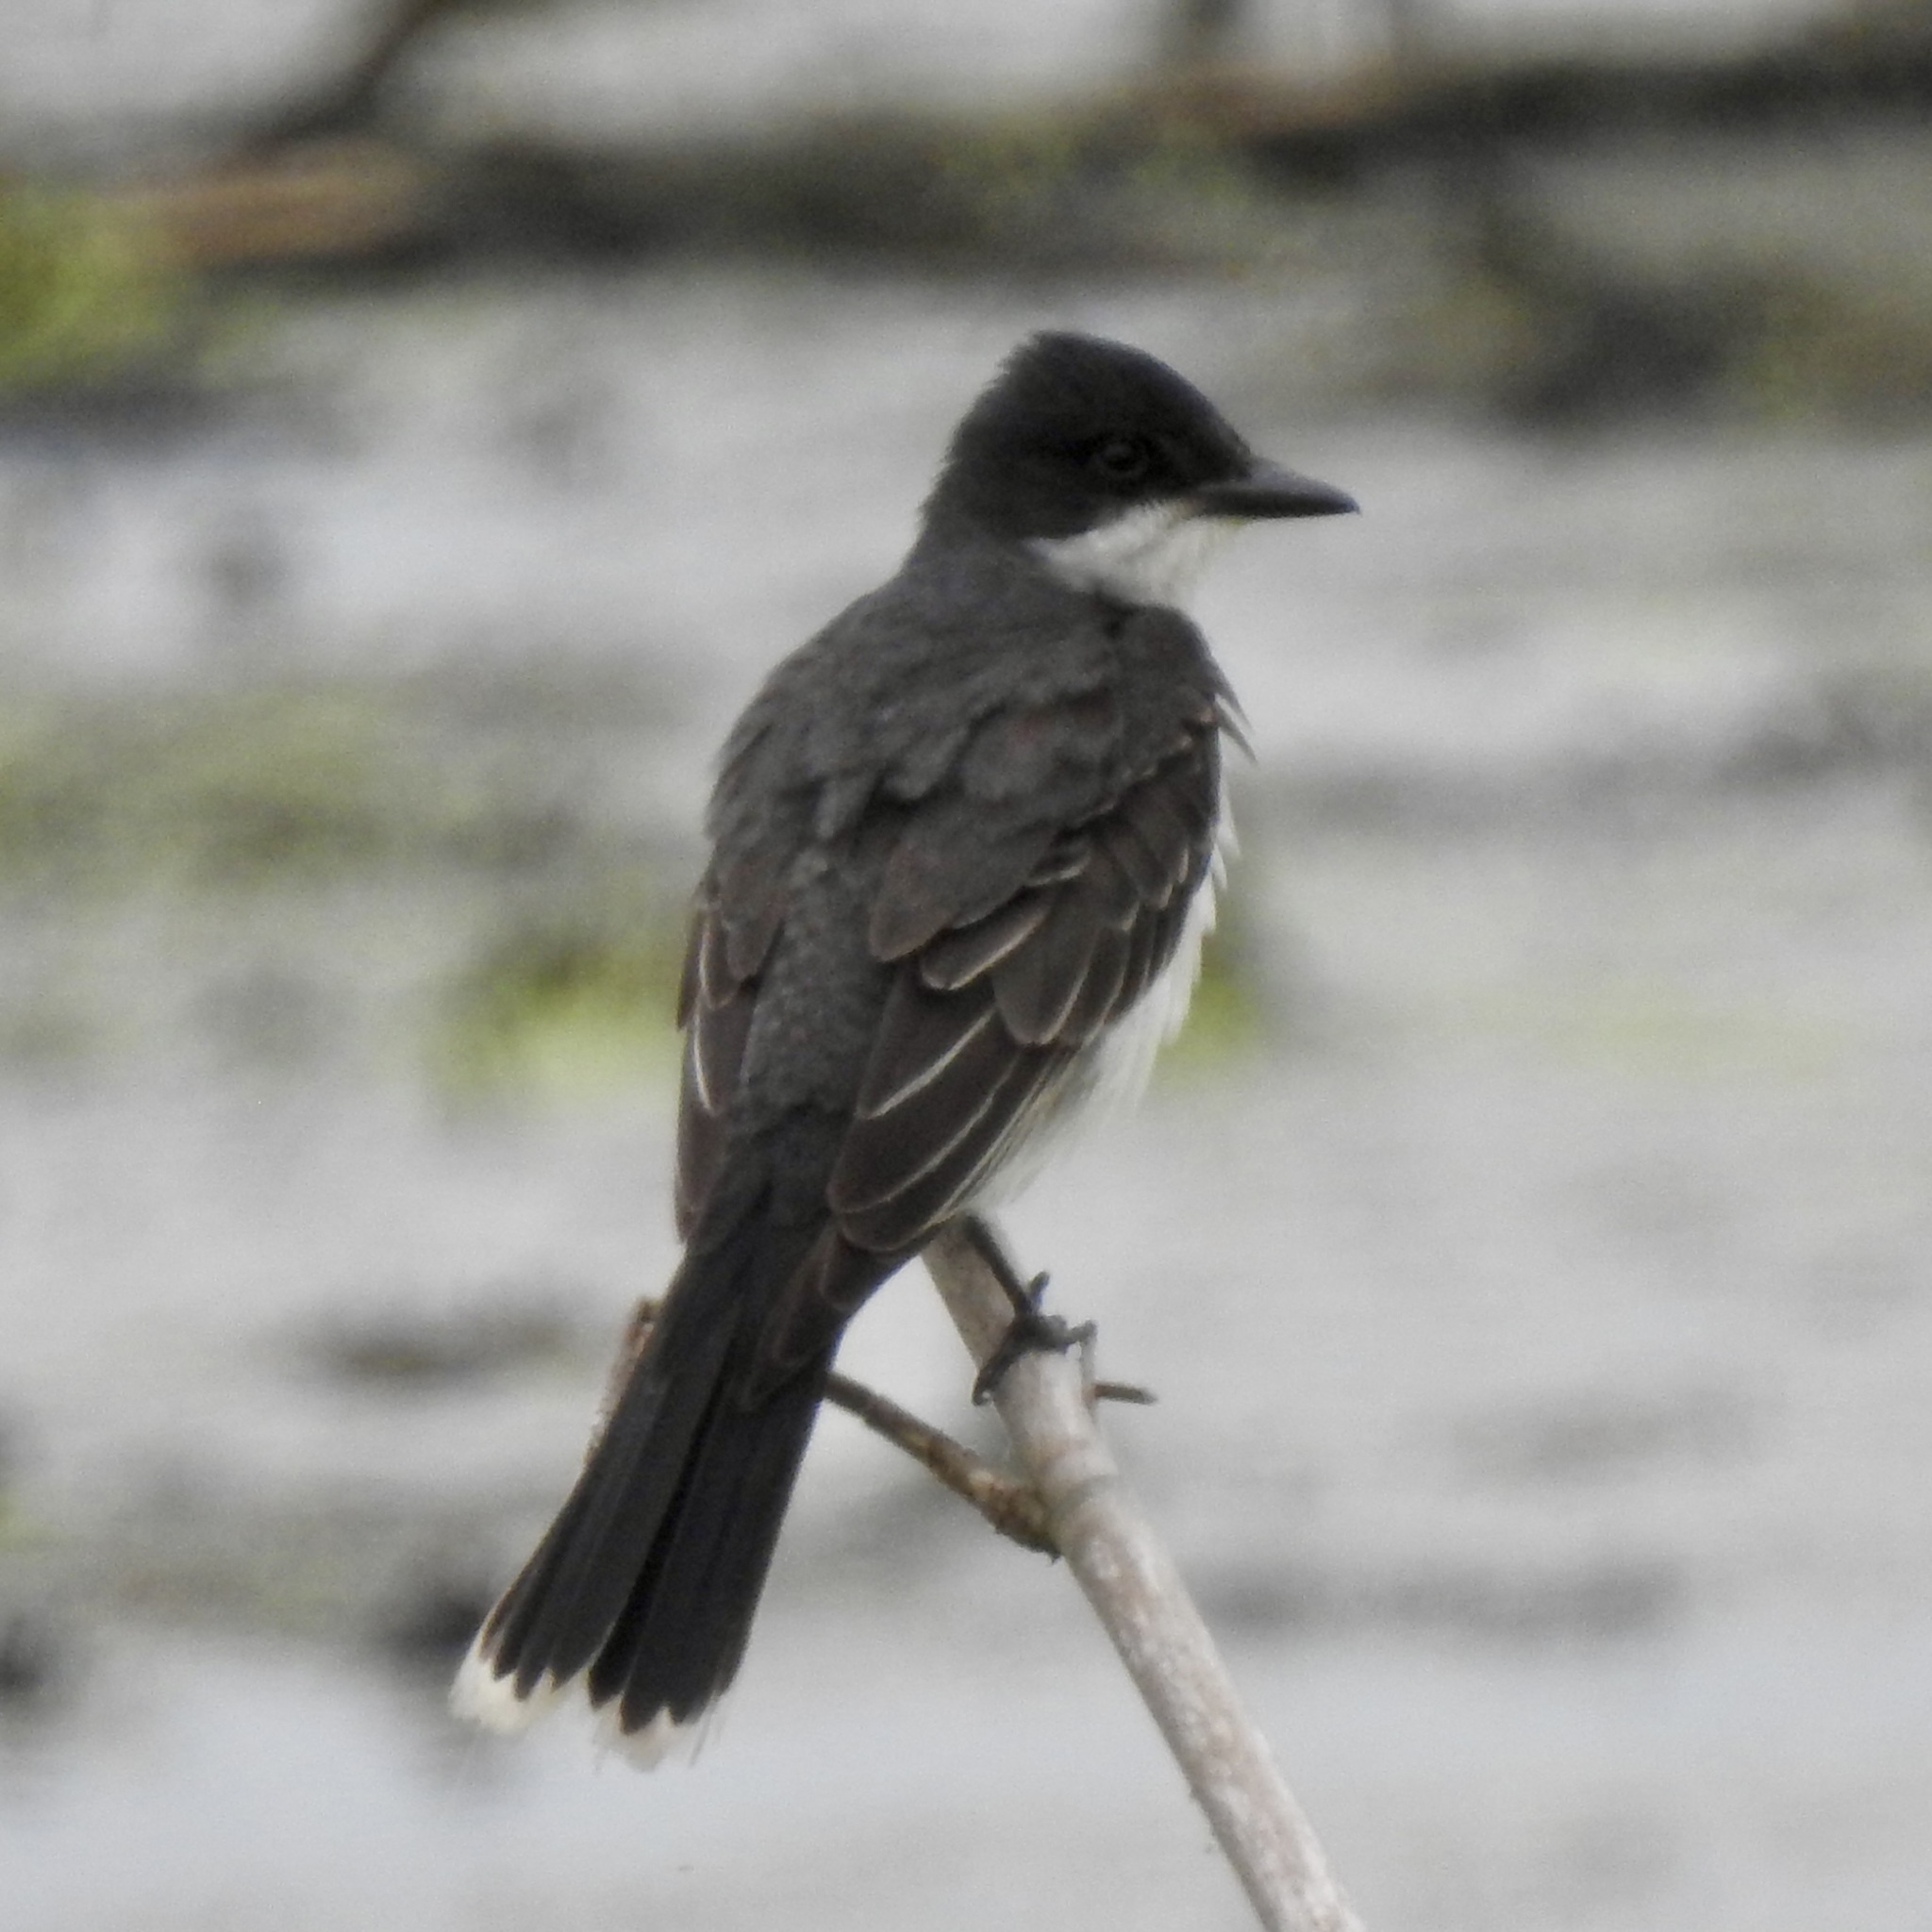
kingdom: Animalia
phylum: Chordata
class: Aves
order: Passeriformes
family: Tyrannidae
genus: Tyrannus
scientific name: Tyrannus tyrannus
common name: Eastern kingbird
